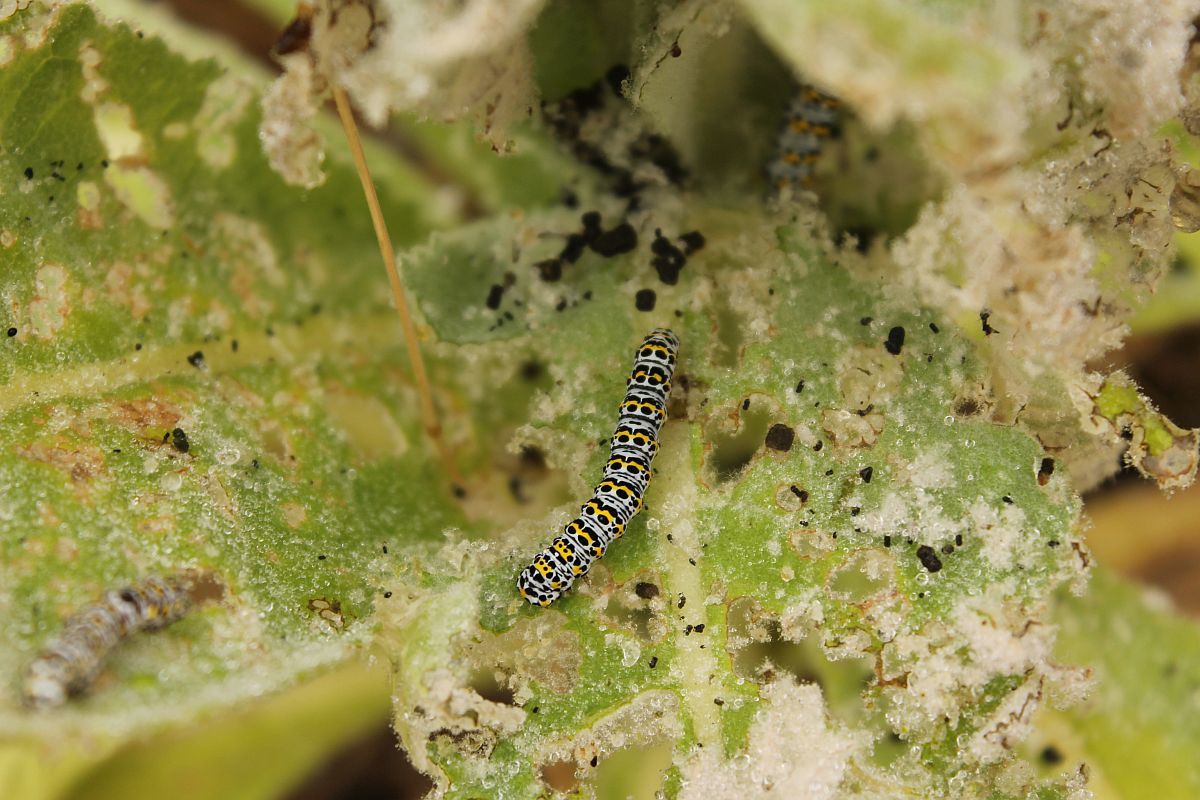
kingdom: Animalia
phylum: Arthropoda
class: Insecta
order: Lepidoptera
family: Noctuidae
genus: Cucullia
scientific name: Cucullia verbasci
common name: Mullein
